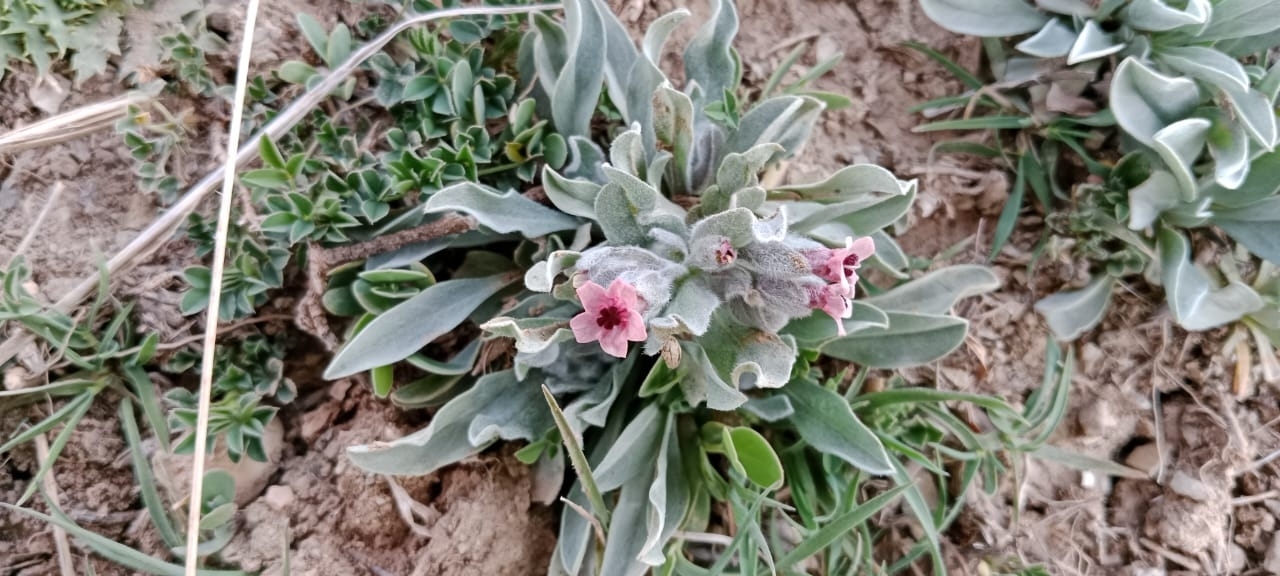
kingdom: Plantae
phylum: Tracheophyta
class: Magnoliopsida
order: Boraginales
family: Boraginaceae
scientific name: Boraginaceae
